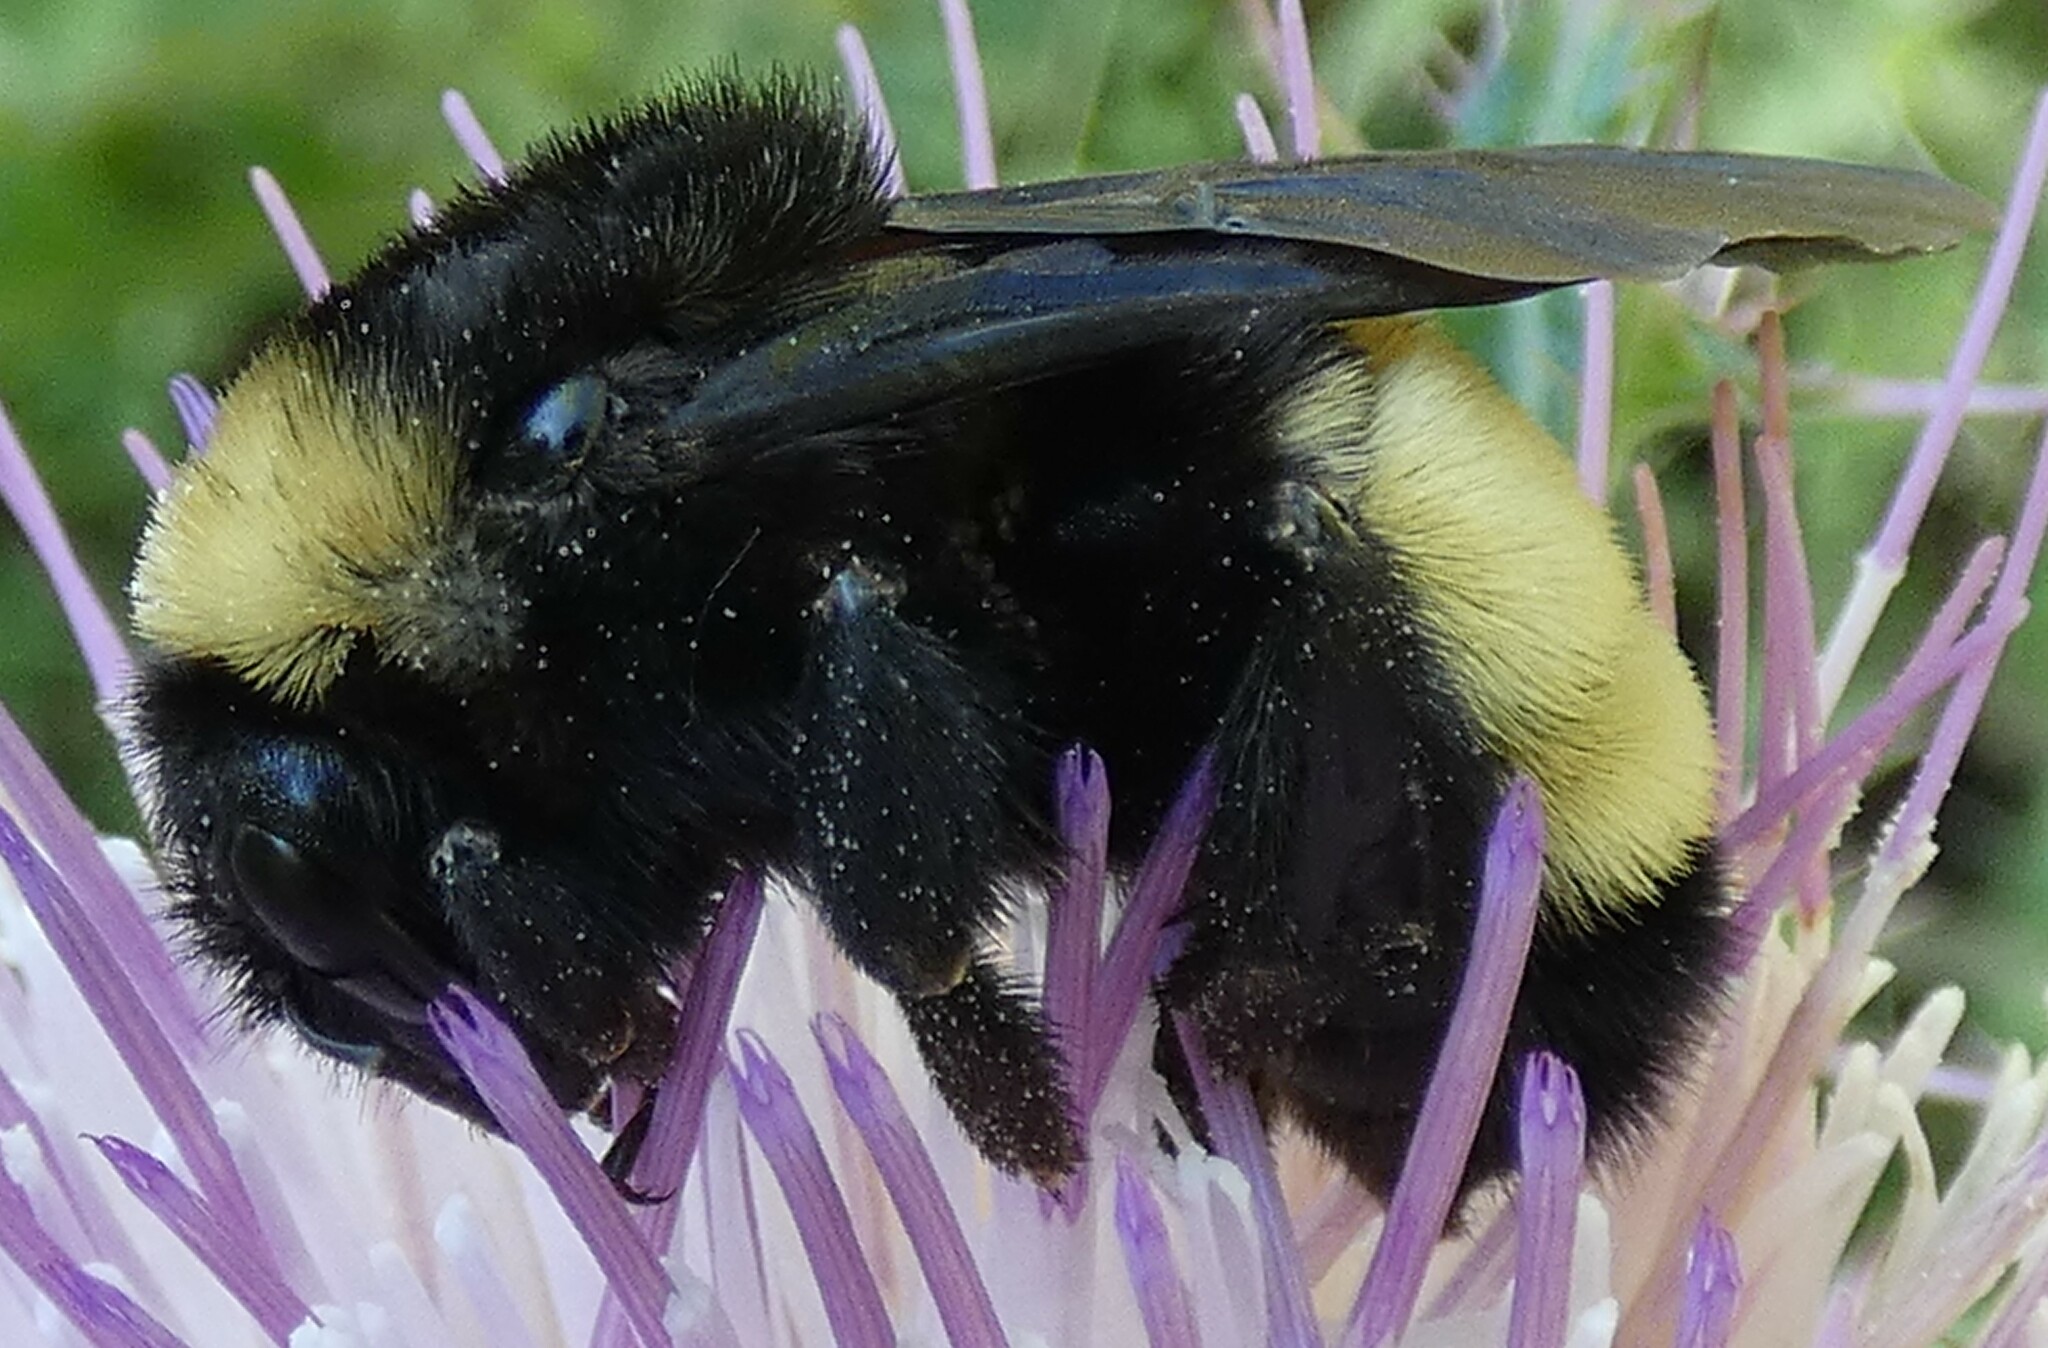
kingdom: Animalia
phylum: Arthropoda
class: Insecta
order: Hymenoptera
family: Apidae
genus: Bombus
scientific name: Bombus pensylvanicus
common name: Bumble bee
